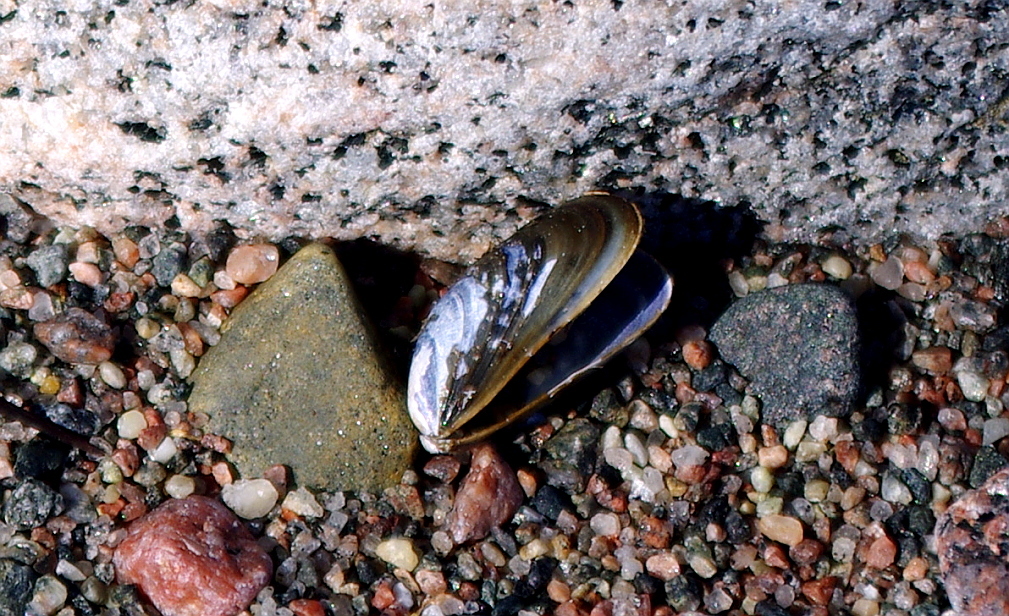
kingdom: Animalia
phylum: Mollusca
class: Bivalvia
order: Mytilida
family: Mytilidae
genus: Mytilus
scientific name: Mytilus edulis
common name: Blue mussel
